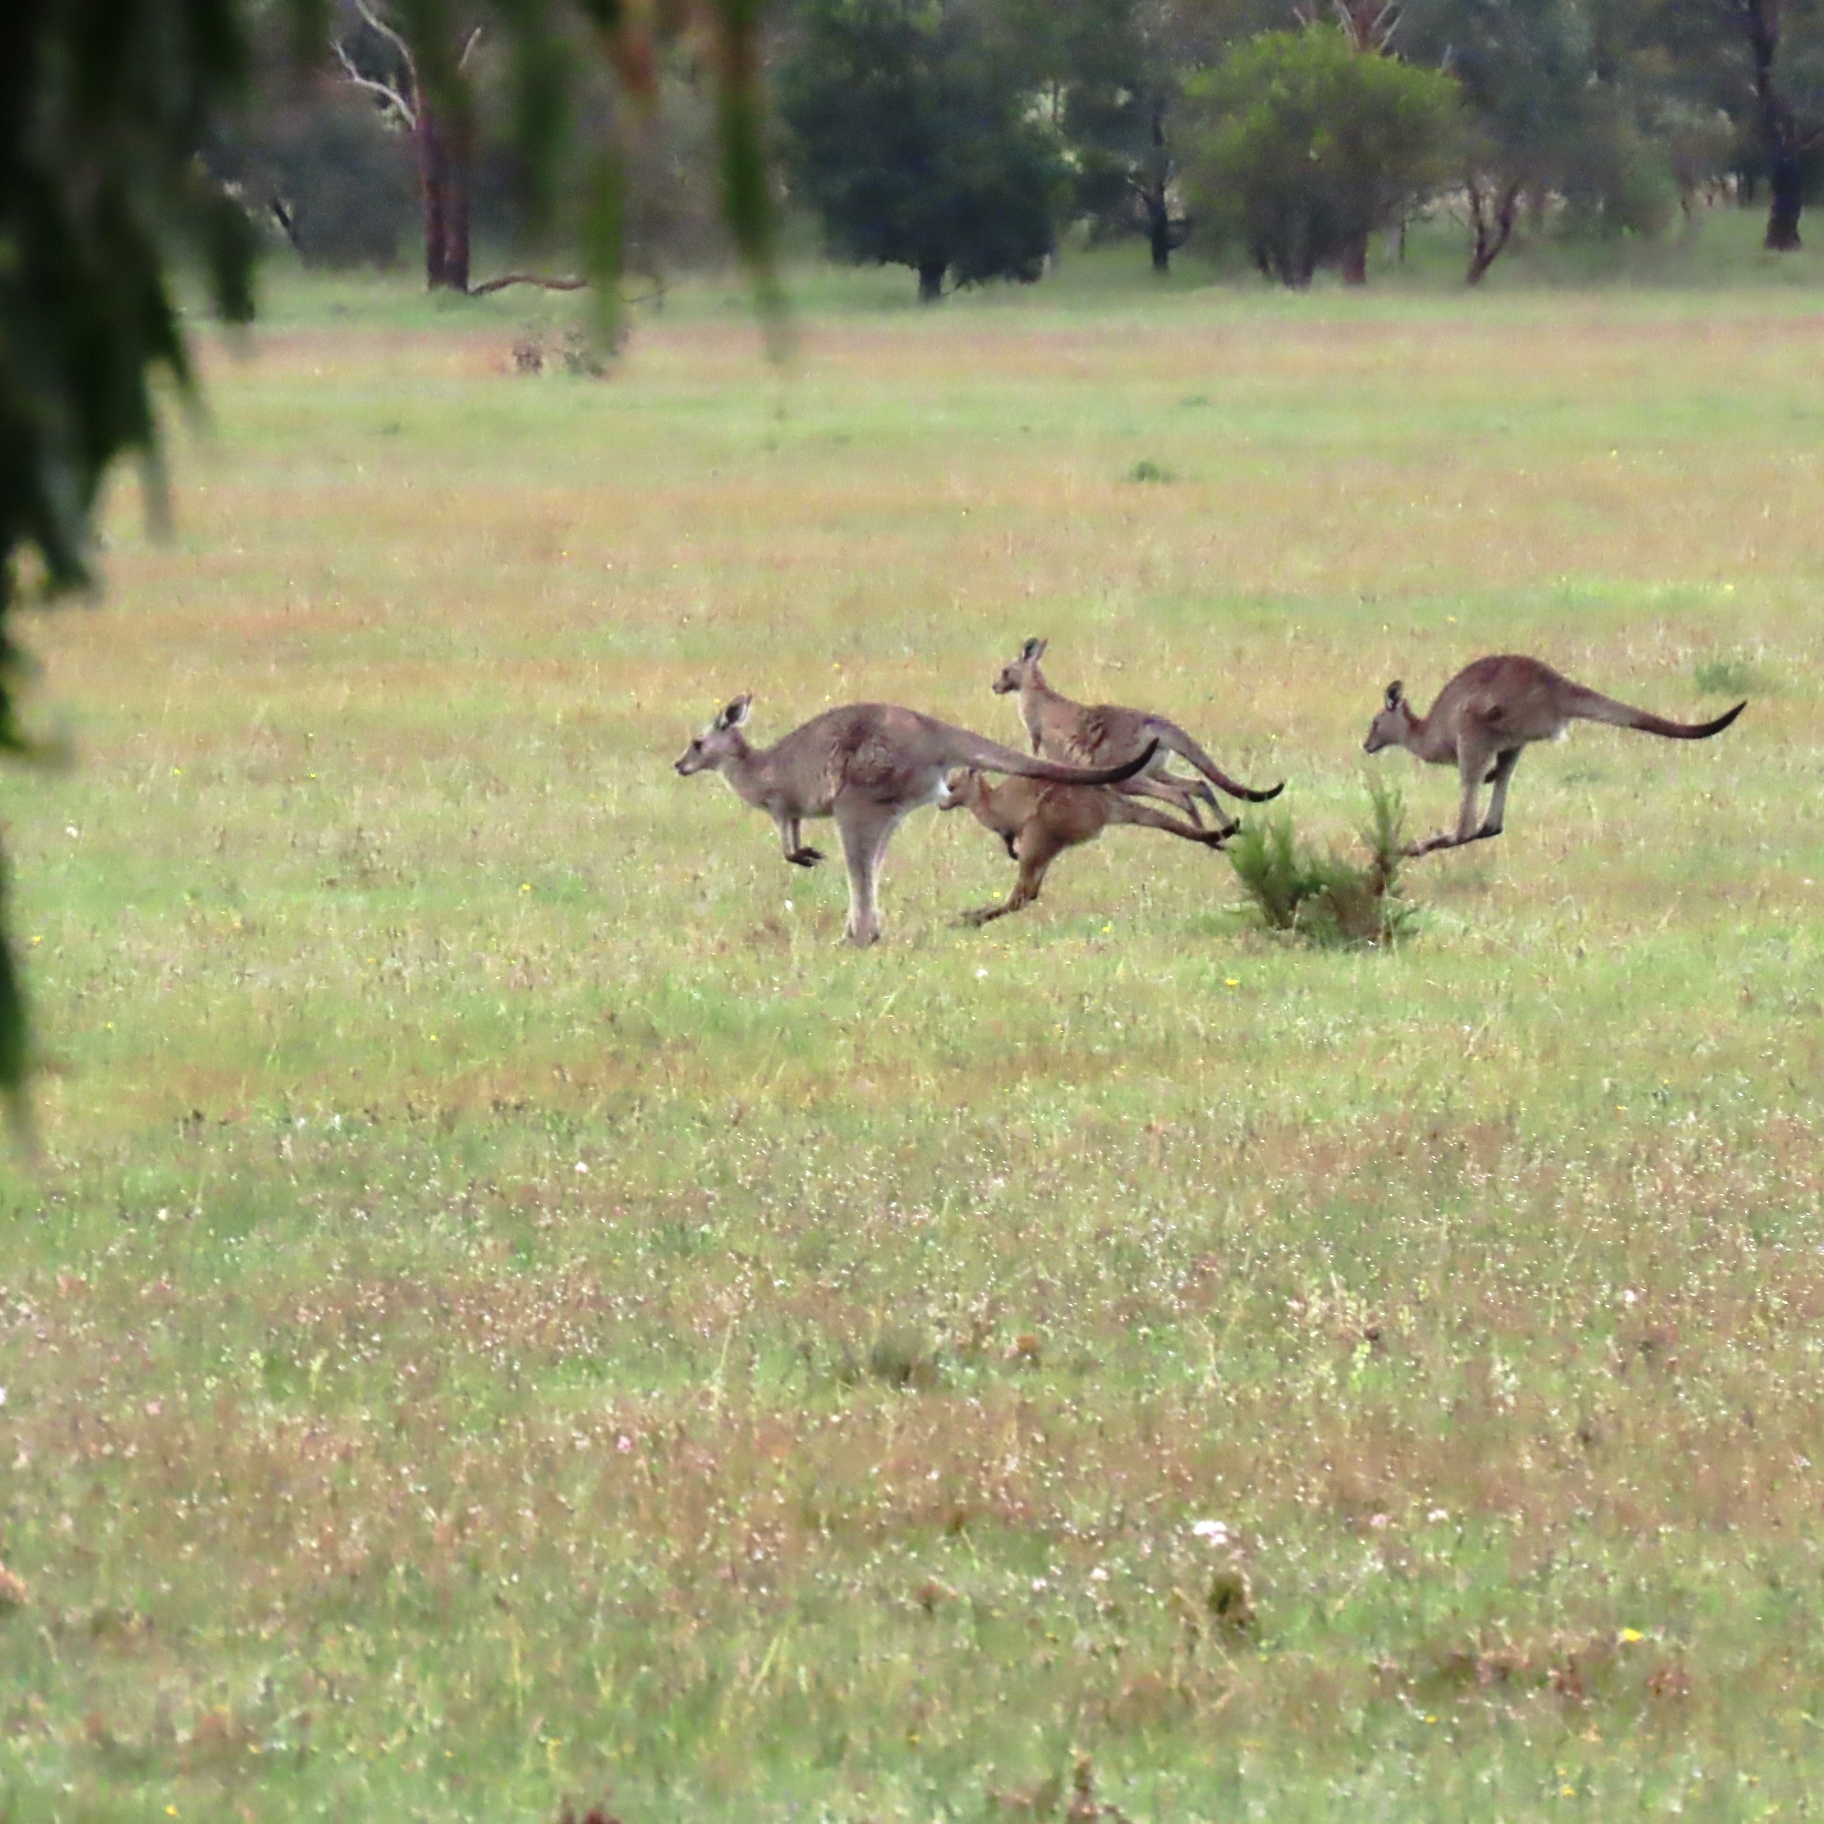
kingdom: Animalia
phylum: Chordata
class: Mammalia
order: Diprotodontia
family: Macropodidae
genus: Macropus
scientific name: Macropus giganteus
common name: Eastern grey kangaroo
